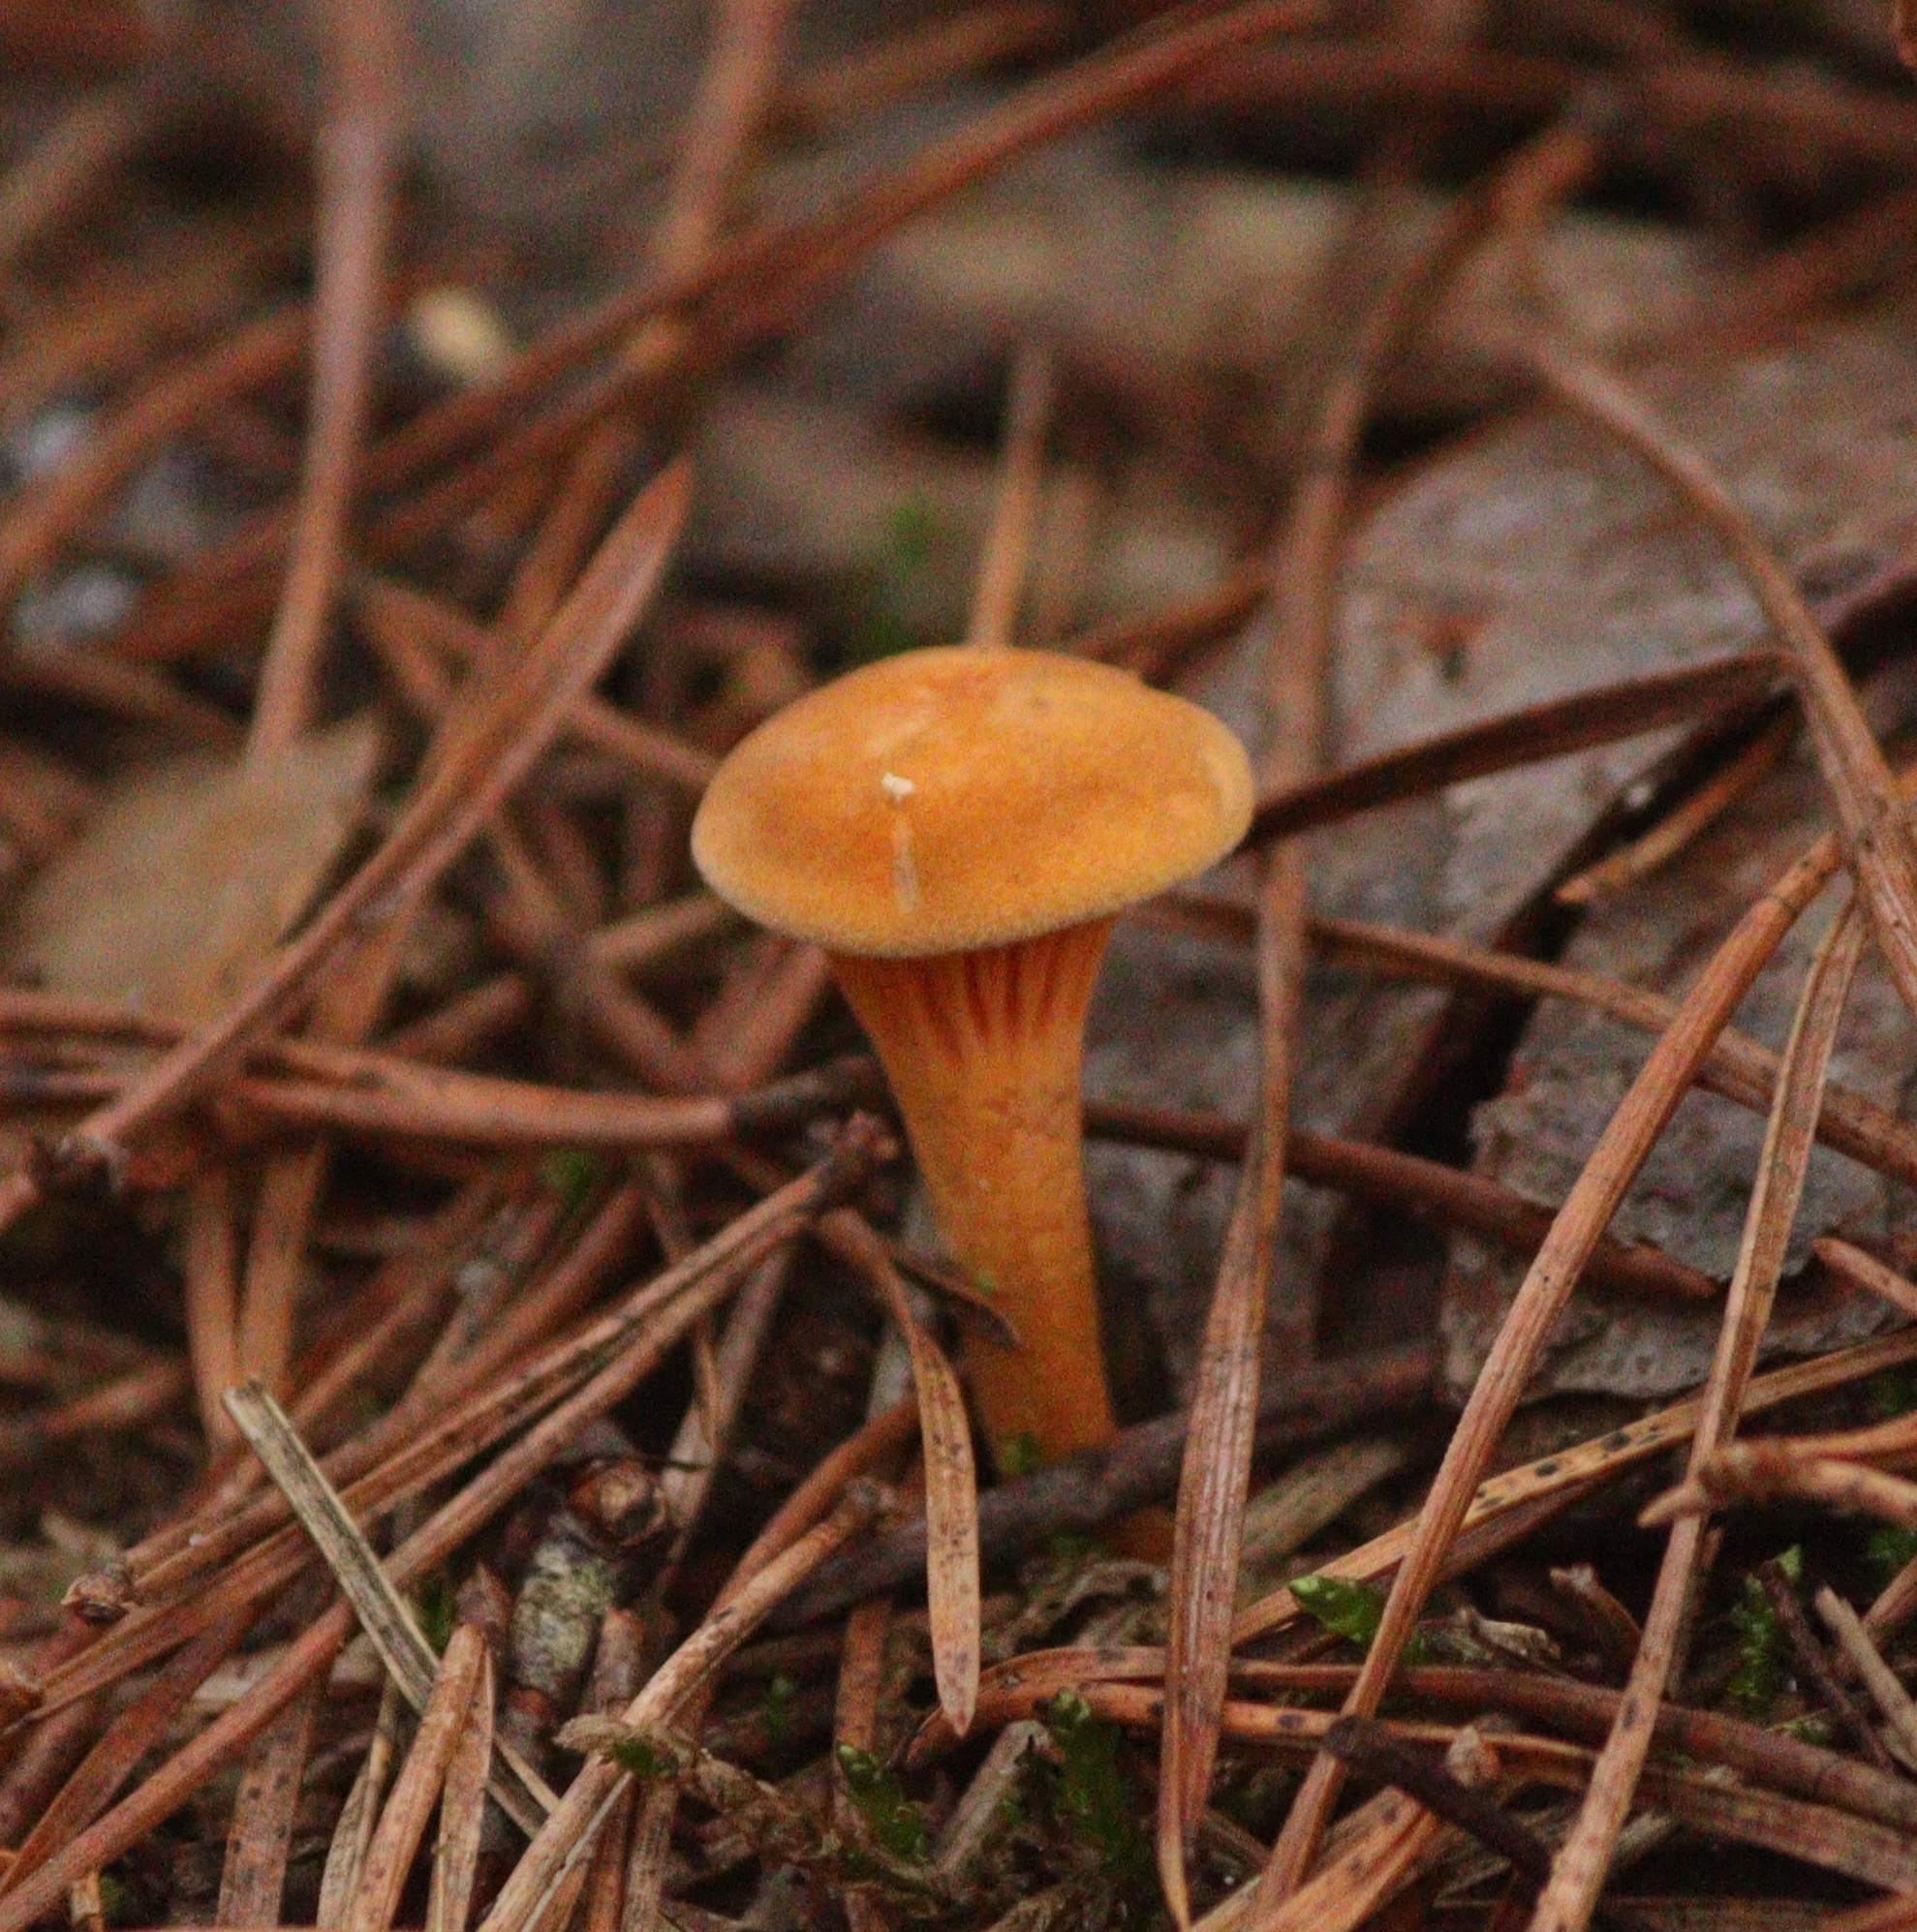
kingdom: Fungi
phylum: Basidiomycota
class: Agaricomycetes
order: Boletales
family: Hygrophoropsidaceae
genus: Hygrophoropsis
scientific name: Hygrophoropsis aurantiaca
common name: False chanterelle
